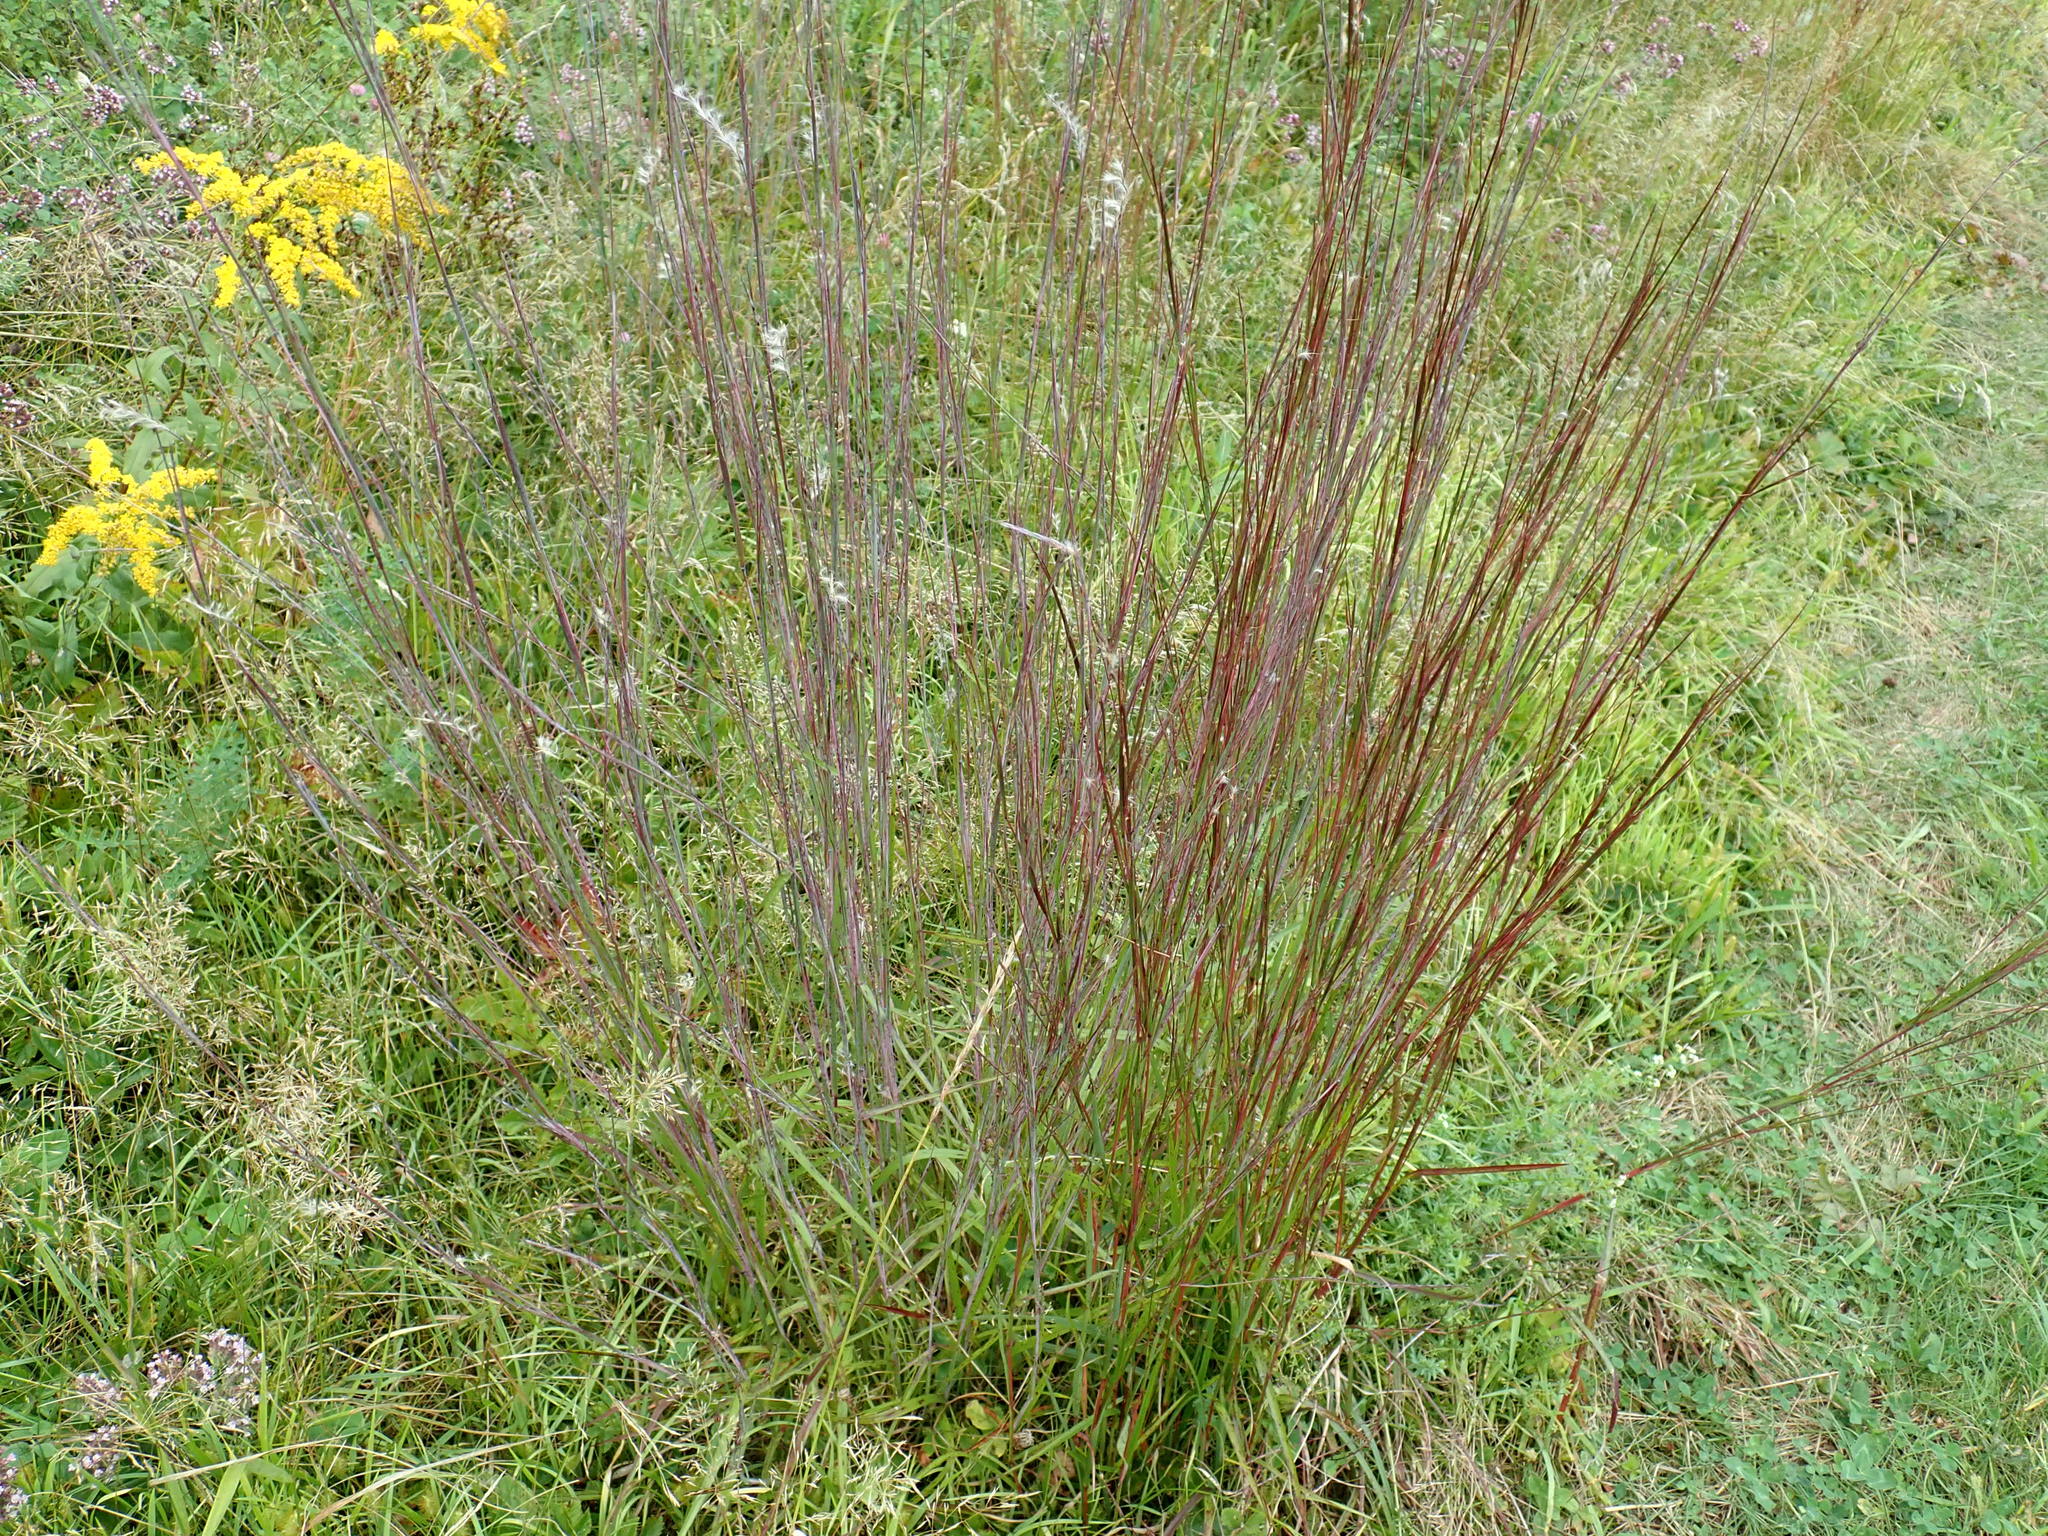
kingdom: Plantae
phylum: Tracheophyta
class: Liliopsida
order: Poales
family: Poaceae
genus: Schizachyrium
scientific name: Schizachyrium scoparium
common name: Little bluestem
